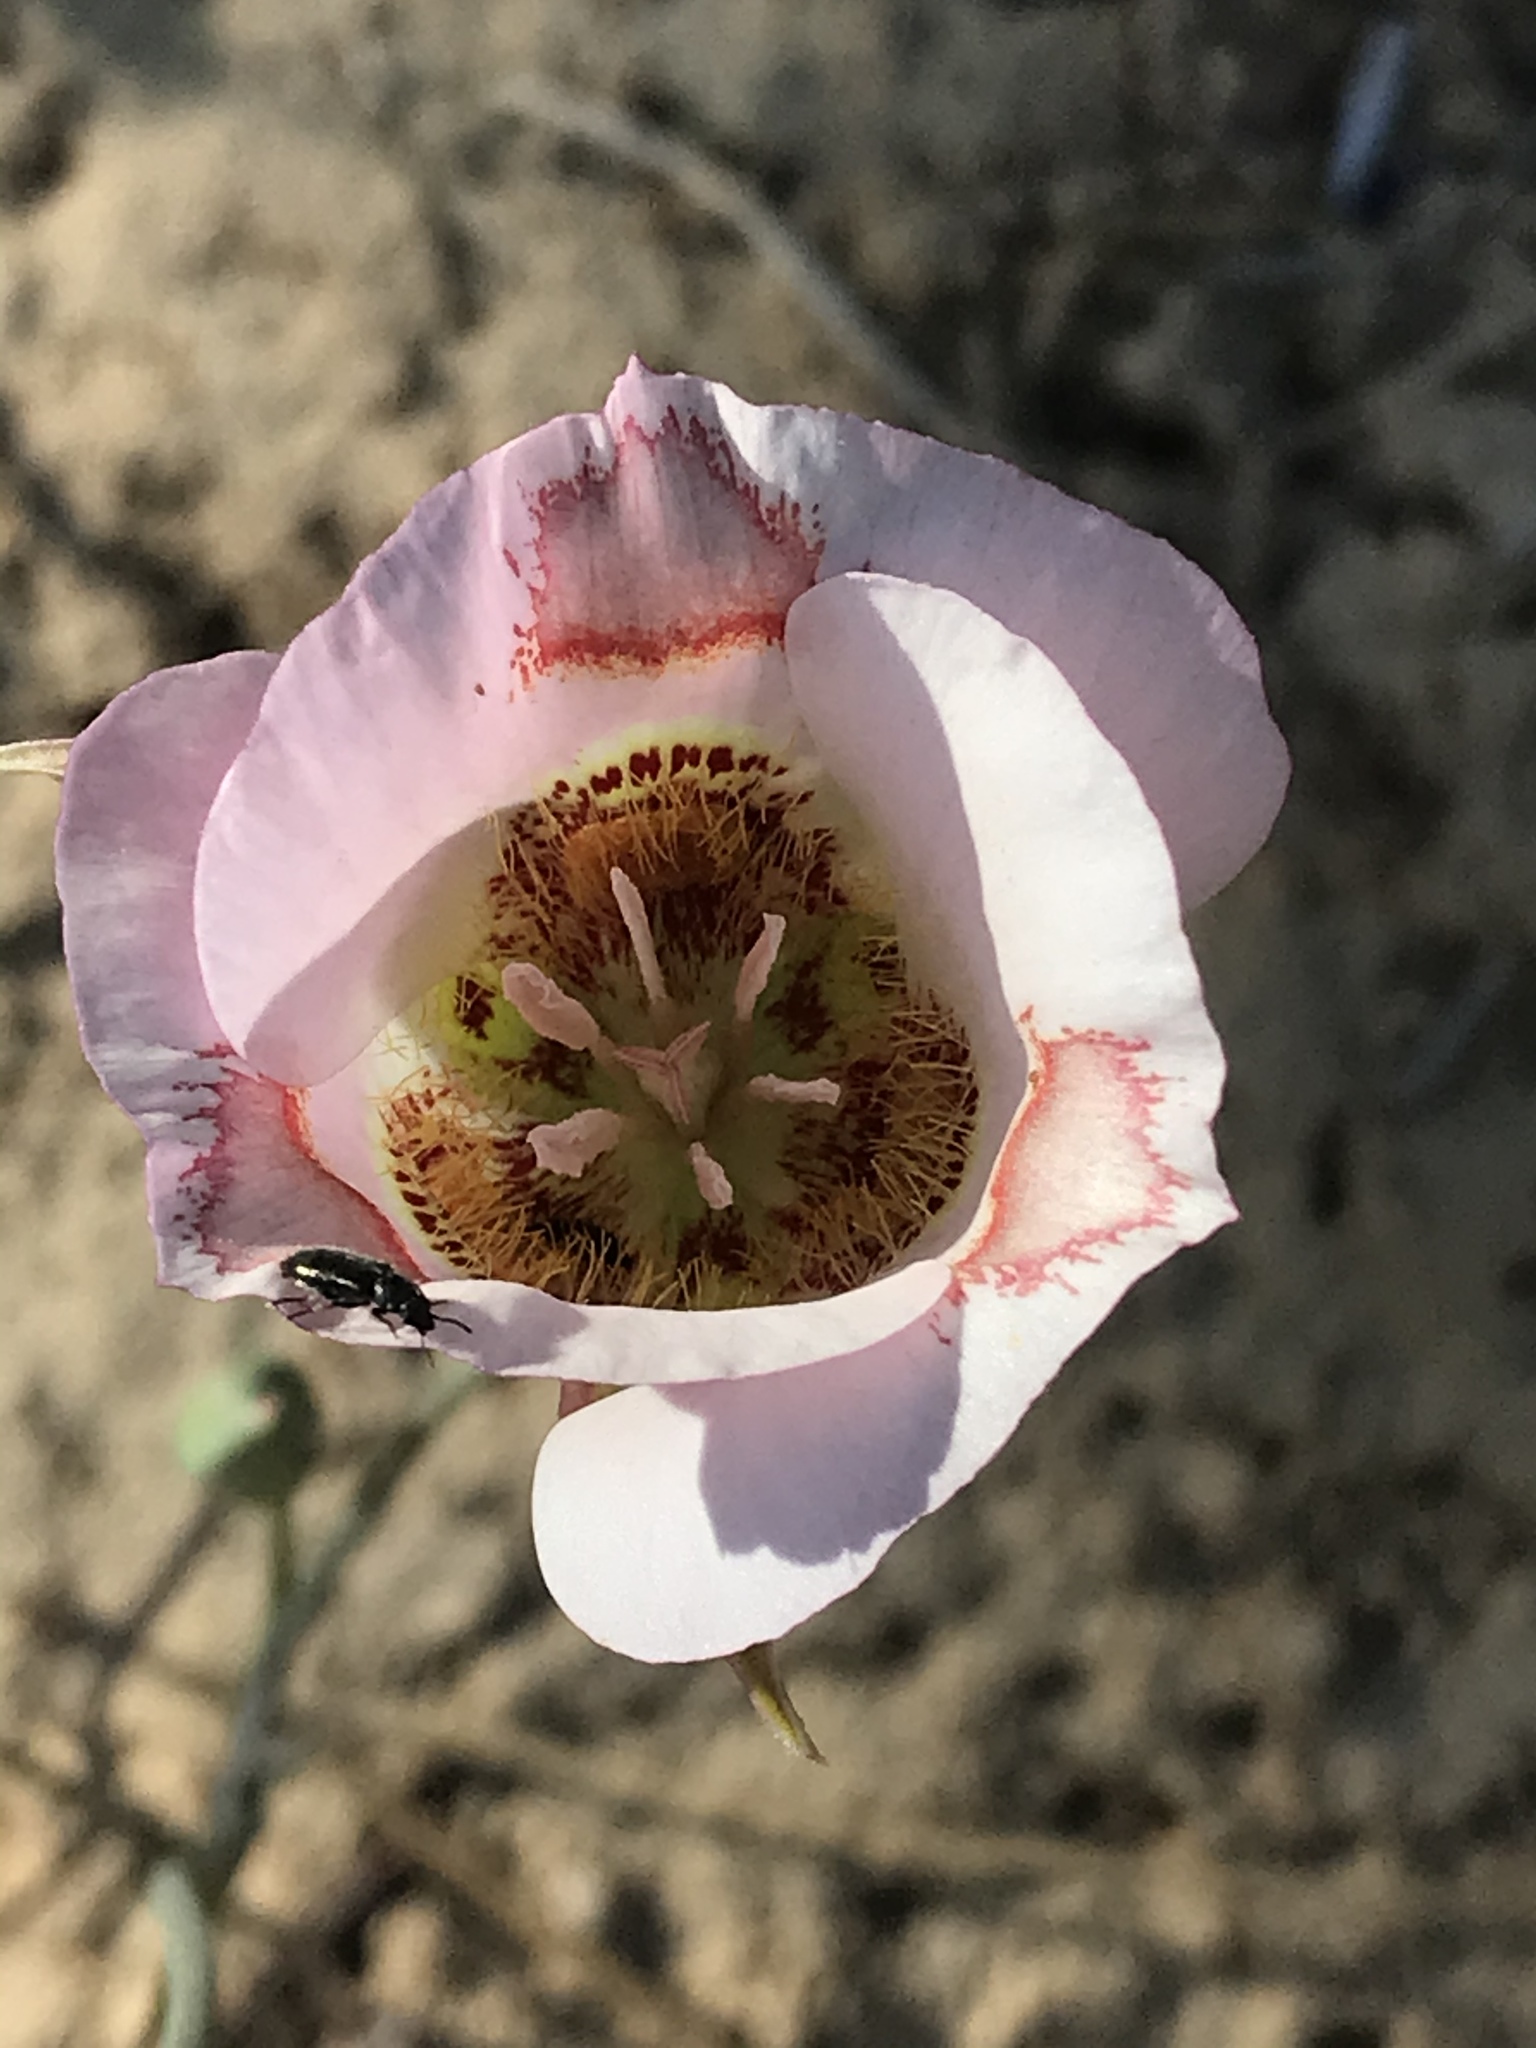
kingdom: Plantae
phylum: Tracheophyta
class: Liliopsida
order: Liliales
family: Liliaceae
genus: Calochortus
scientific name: Calochortus venustus
